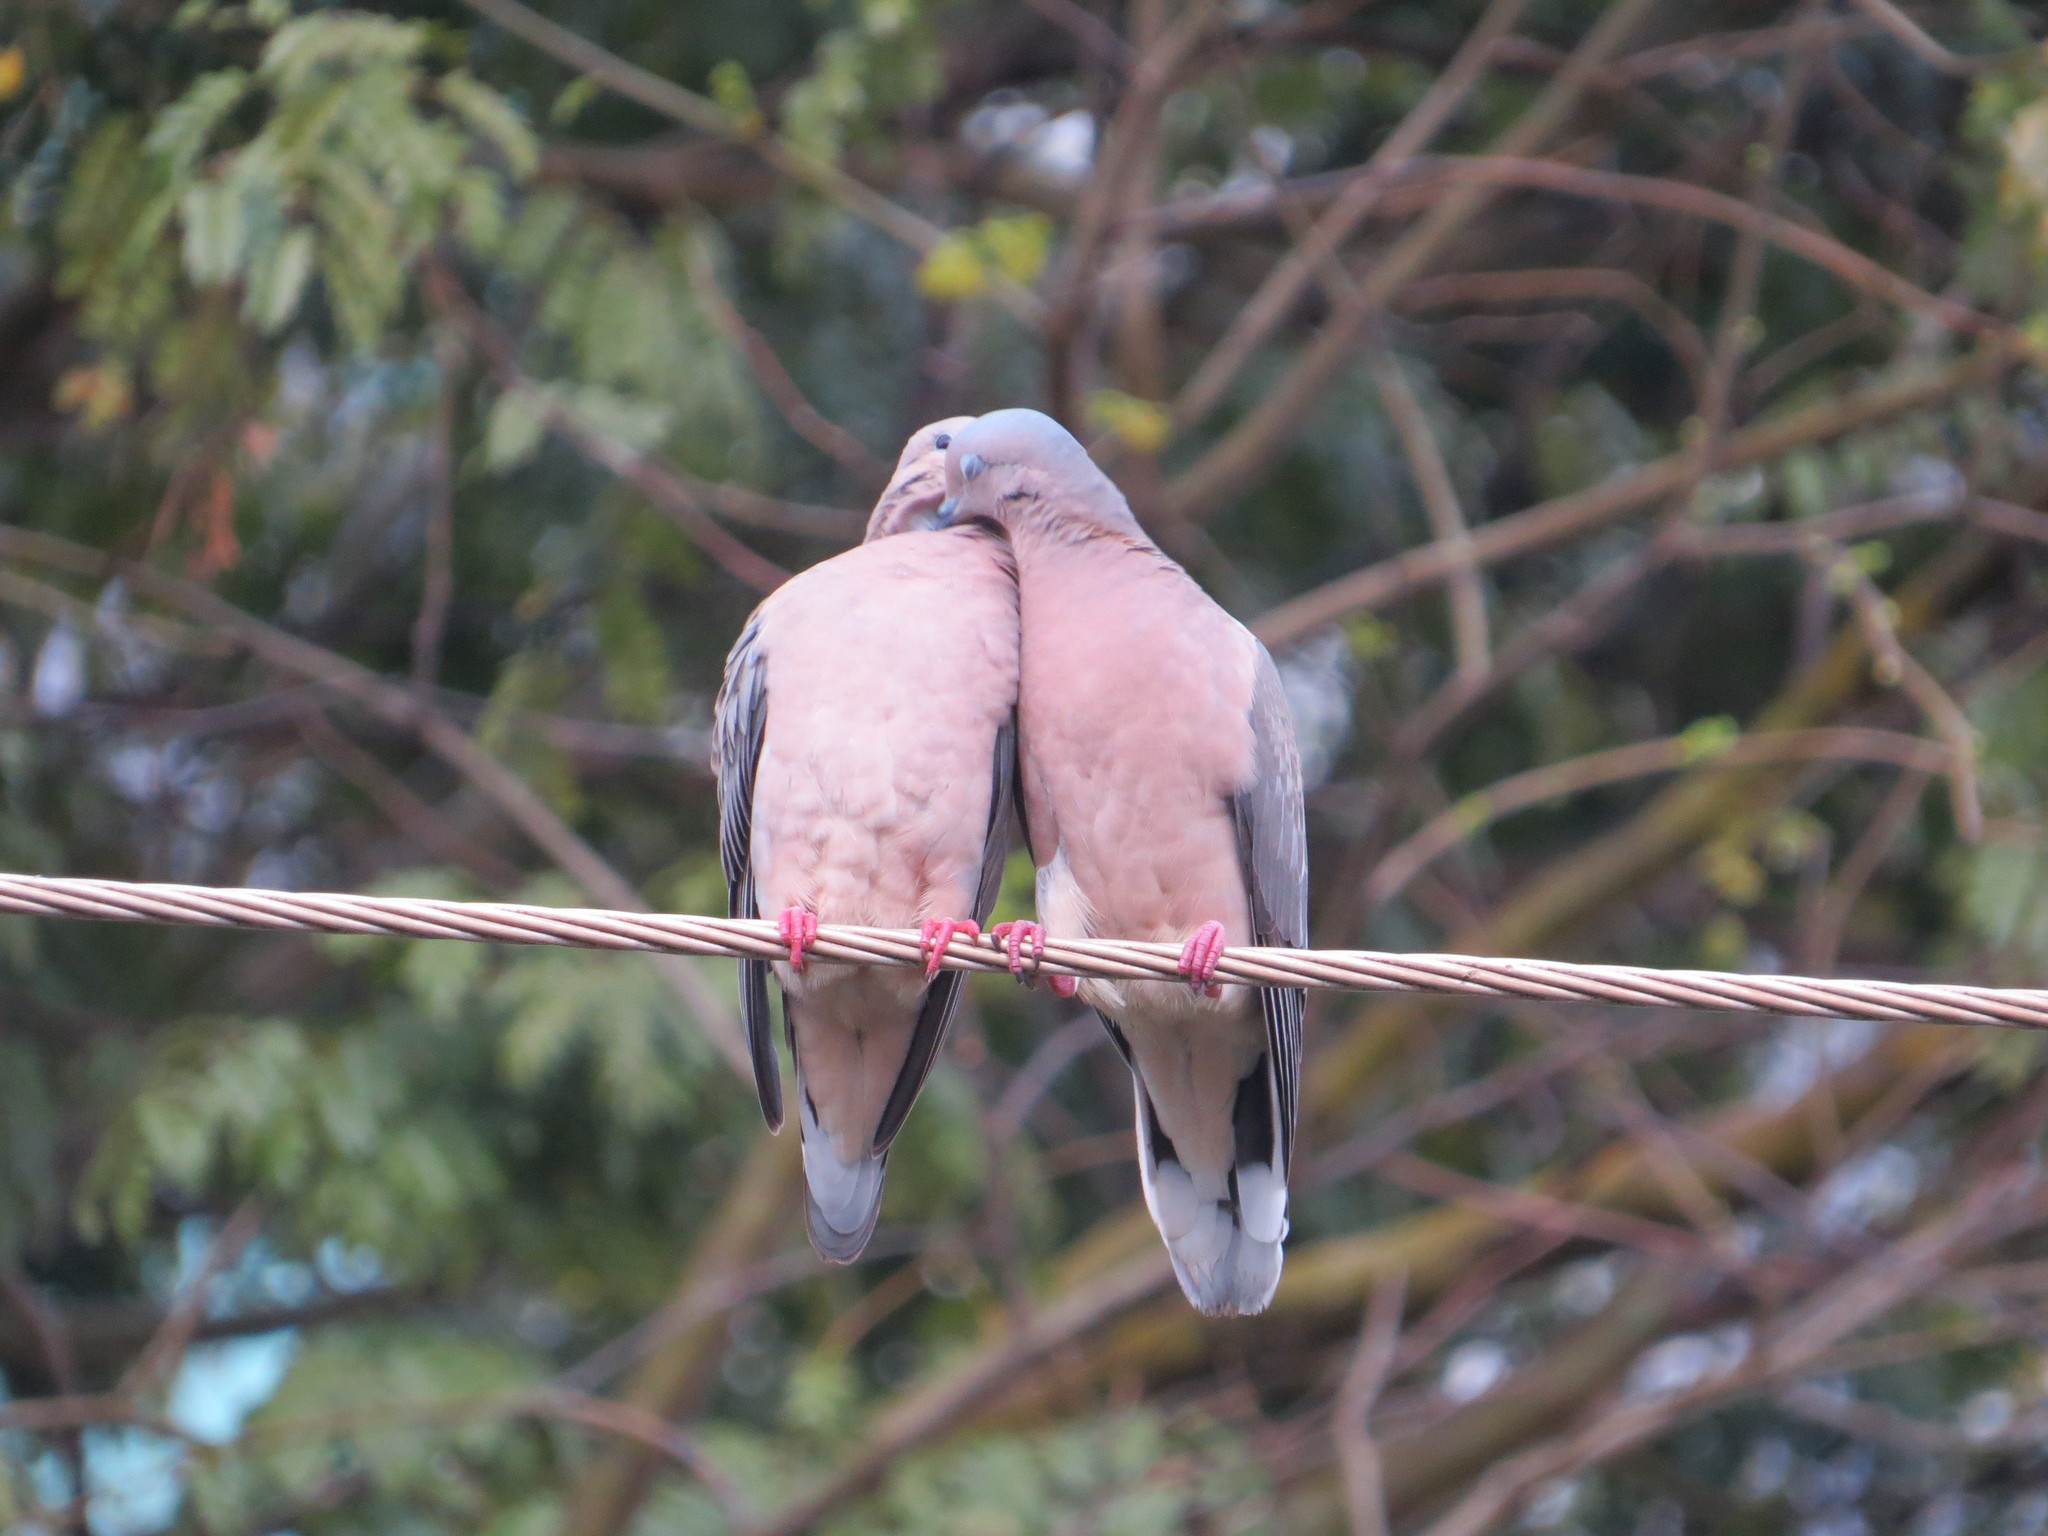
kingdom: Animalia
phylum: Chordata
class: Aves
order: Columbiformes
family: Columbidae
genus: Zenaida
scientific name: Zenaida auriculata
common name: Eared dove
